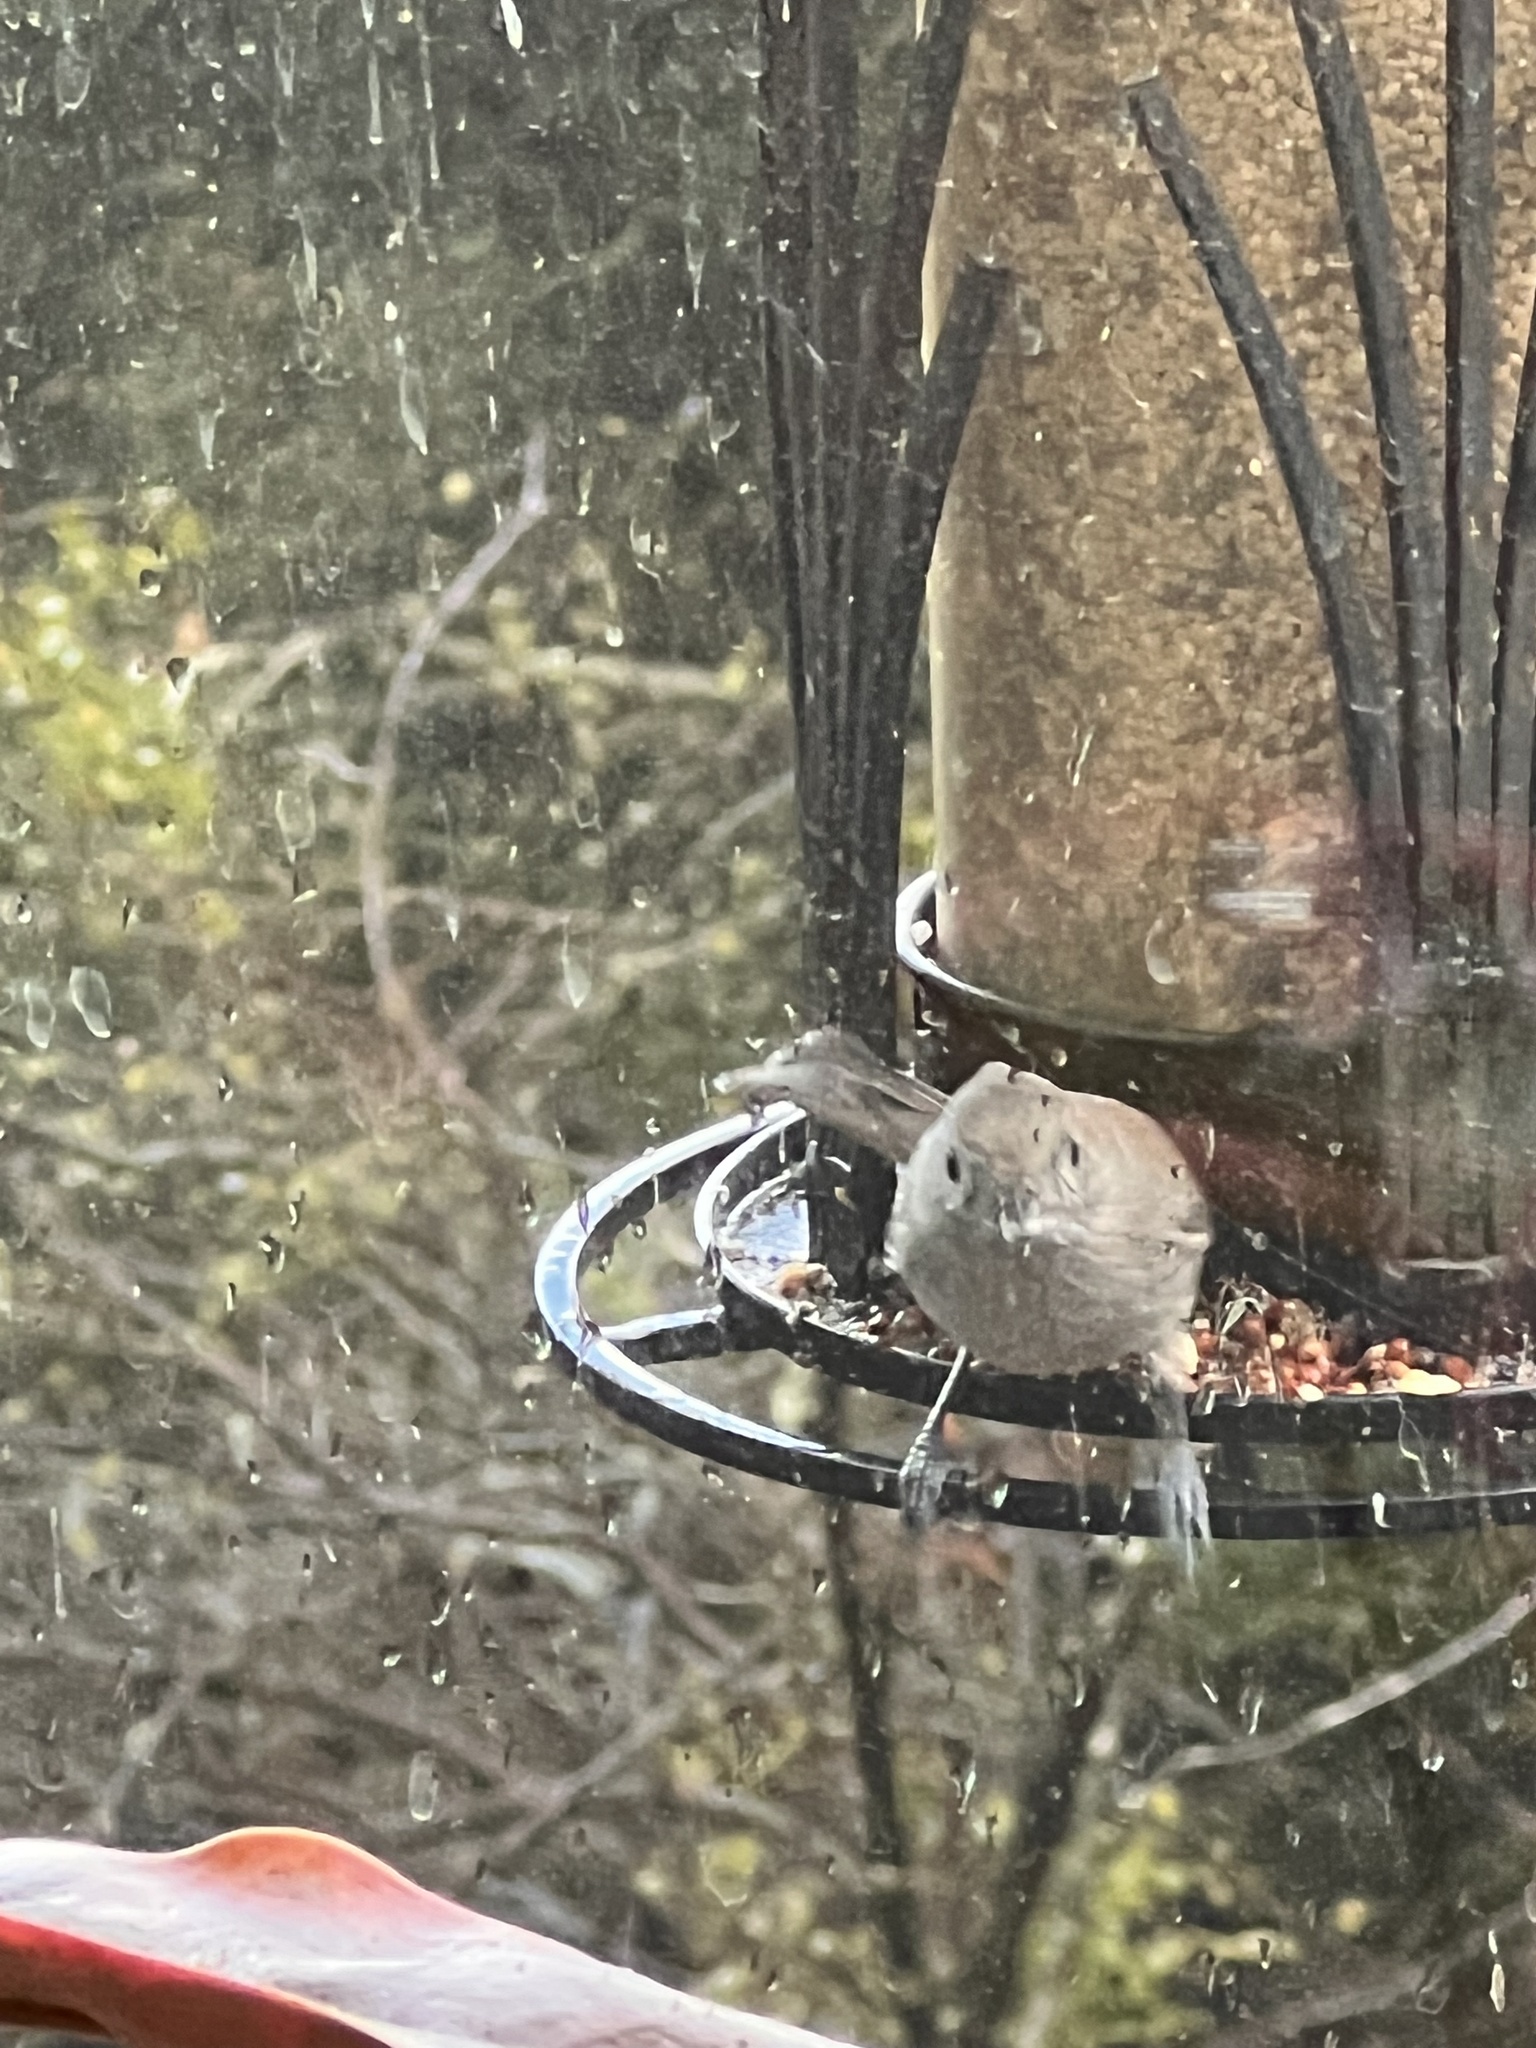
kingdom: Animalia
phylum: Chordata
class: Aves
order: Passeriformes
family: Paridae
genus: Baeolophus
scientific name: Baeolophus inornatus
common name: Oak titmouse
